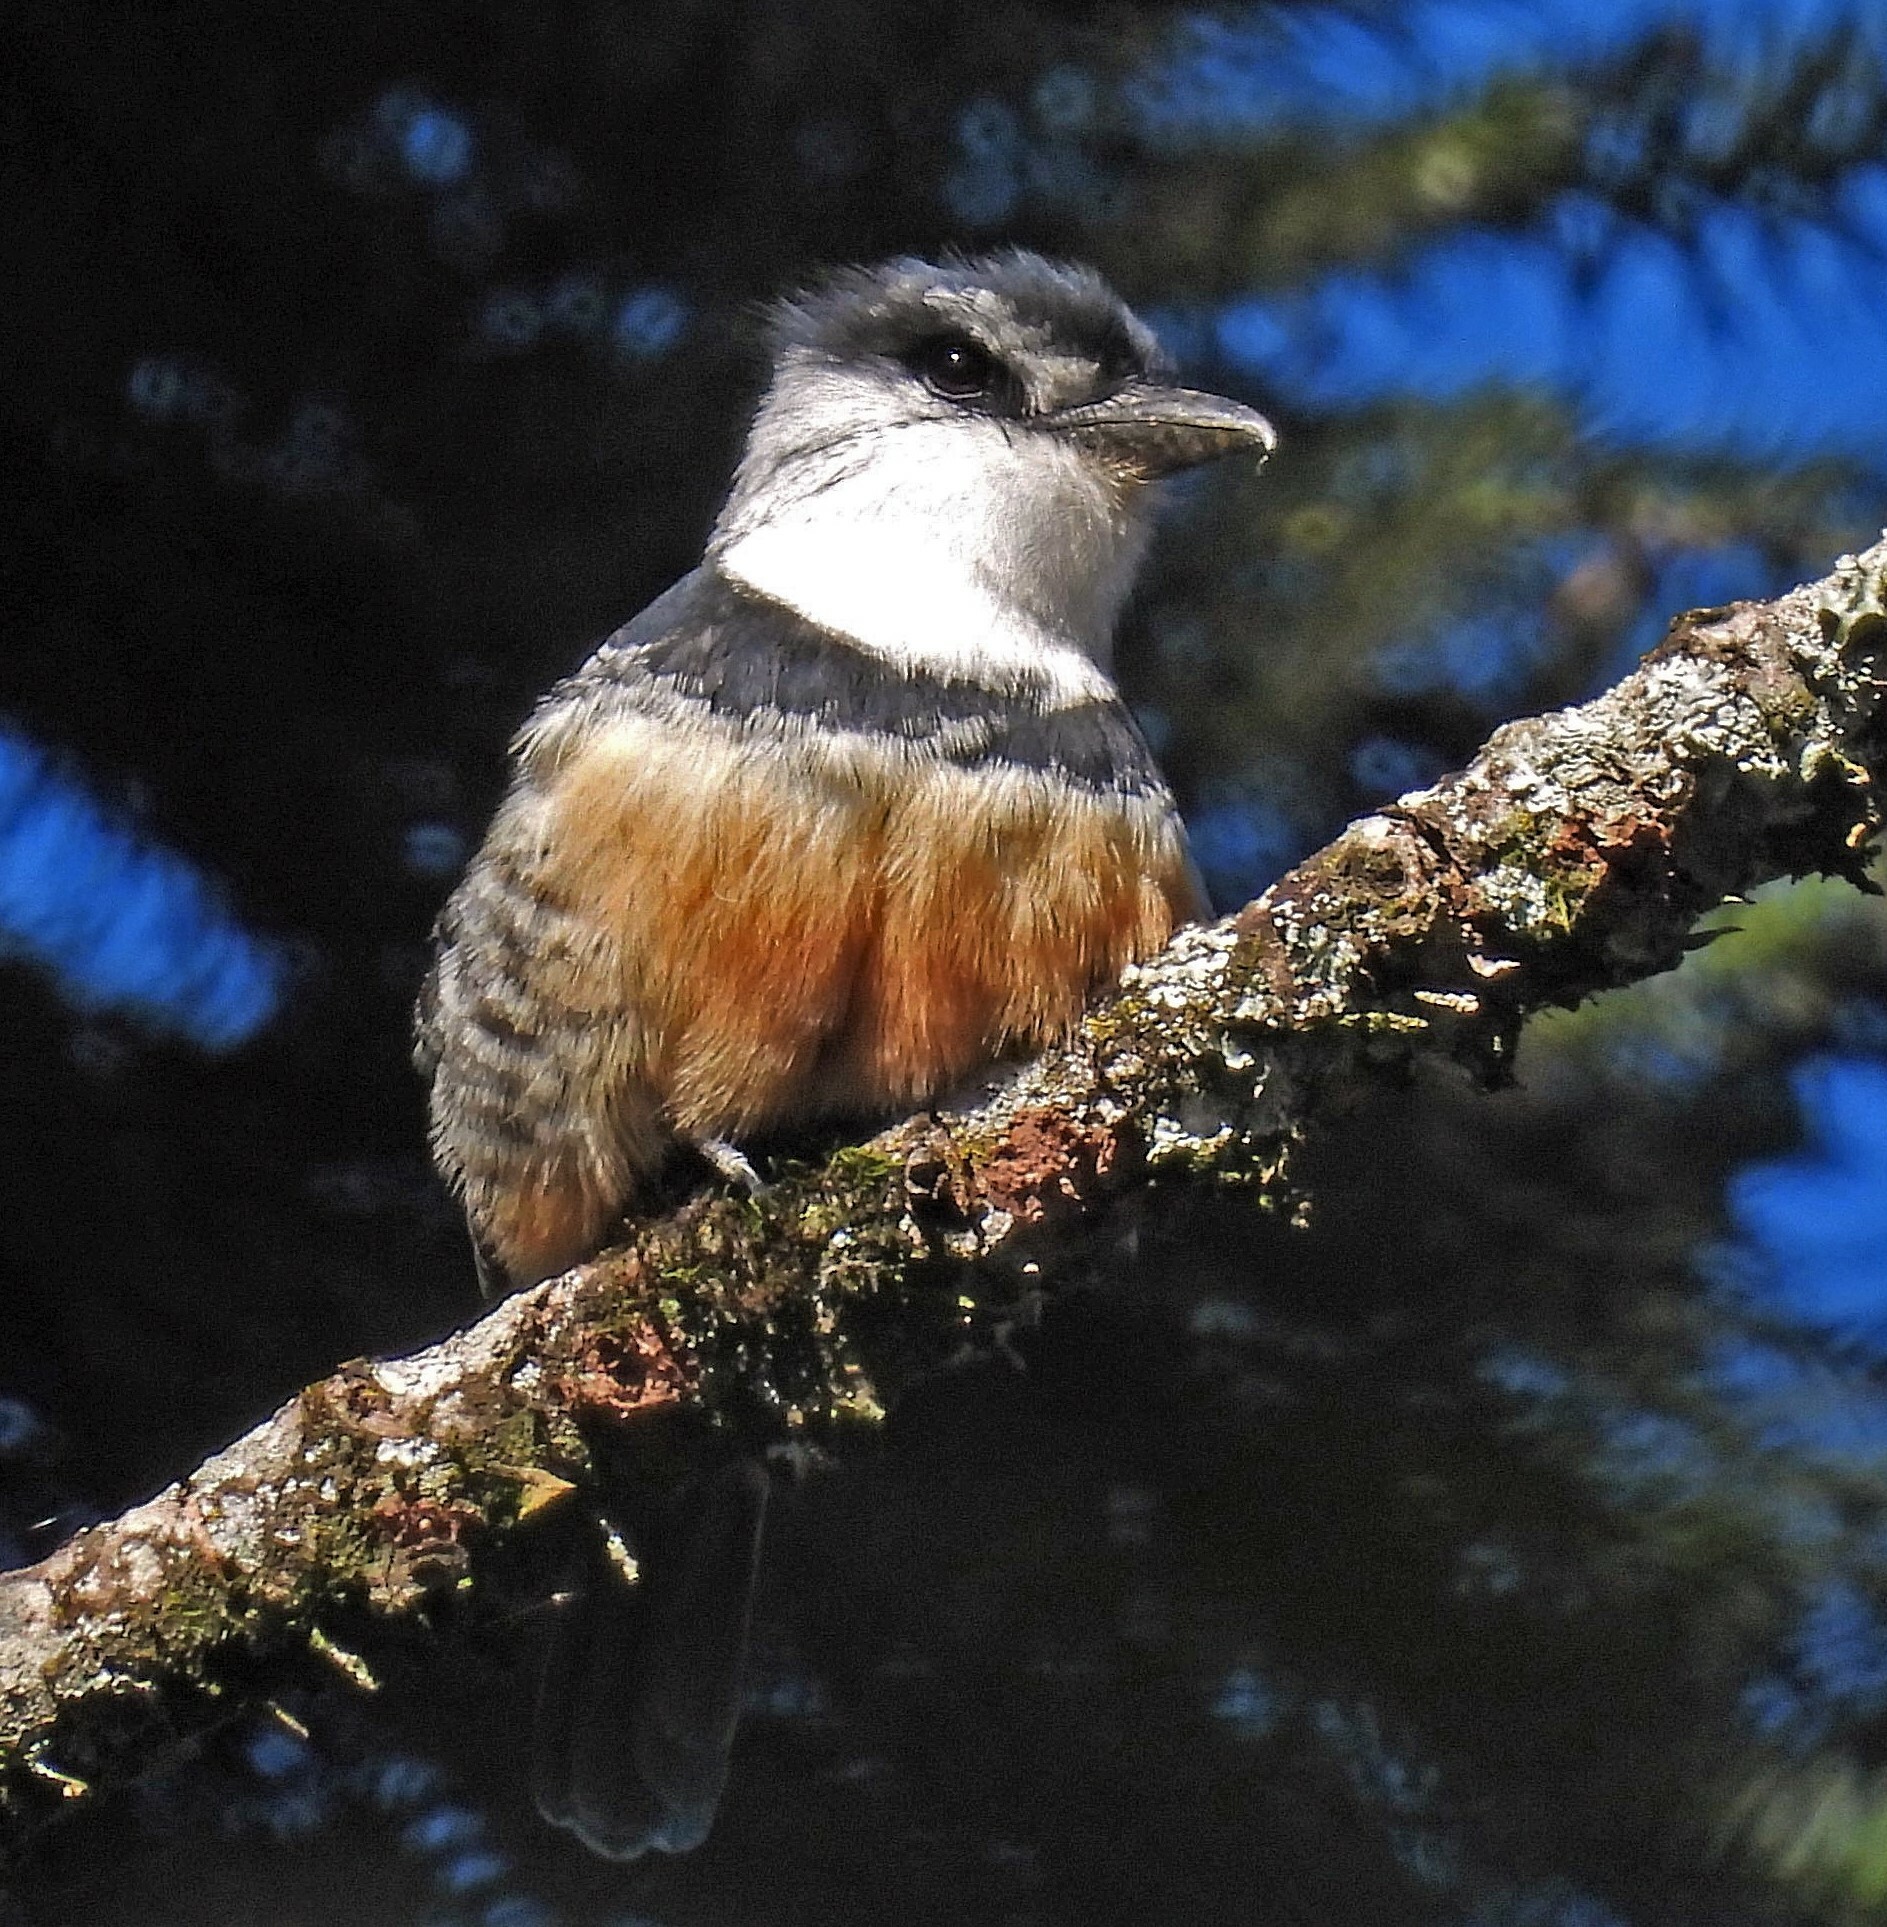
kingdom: Animalia
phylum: Chordata
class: Aves
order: Piciformes
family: Bucconidae
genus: Notharchus
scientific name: Notharchus swainsoni
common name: Buff-bellied puffbird
